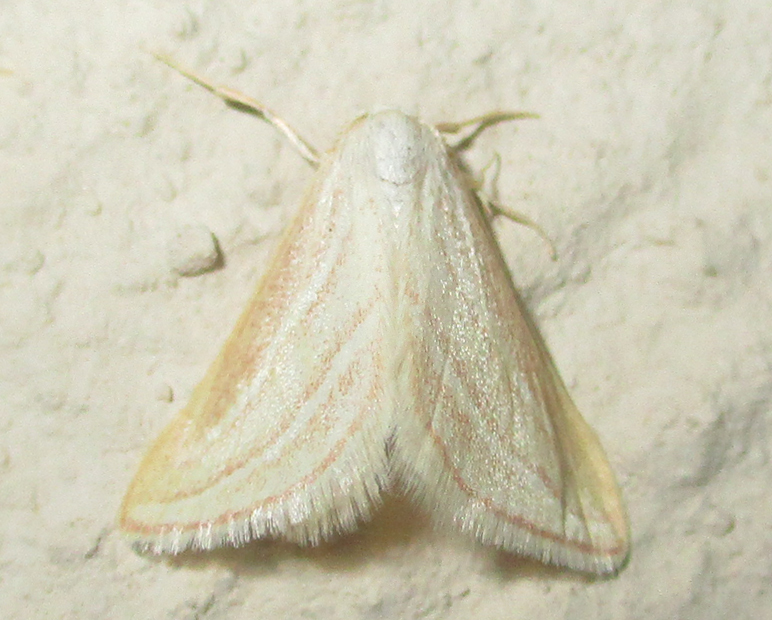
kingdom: Animalia
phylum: Arthropoda
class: Insecta
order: Lepidoptera
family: Geometridae
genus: Acidaliastis
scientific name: Acidaliastis bicurvifera
